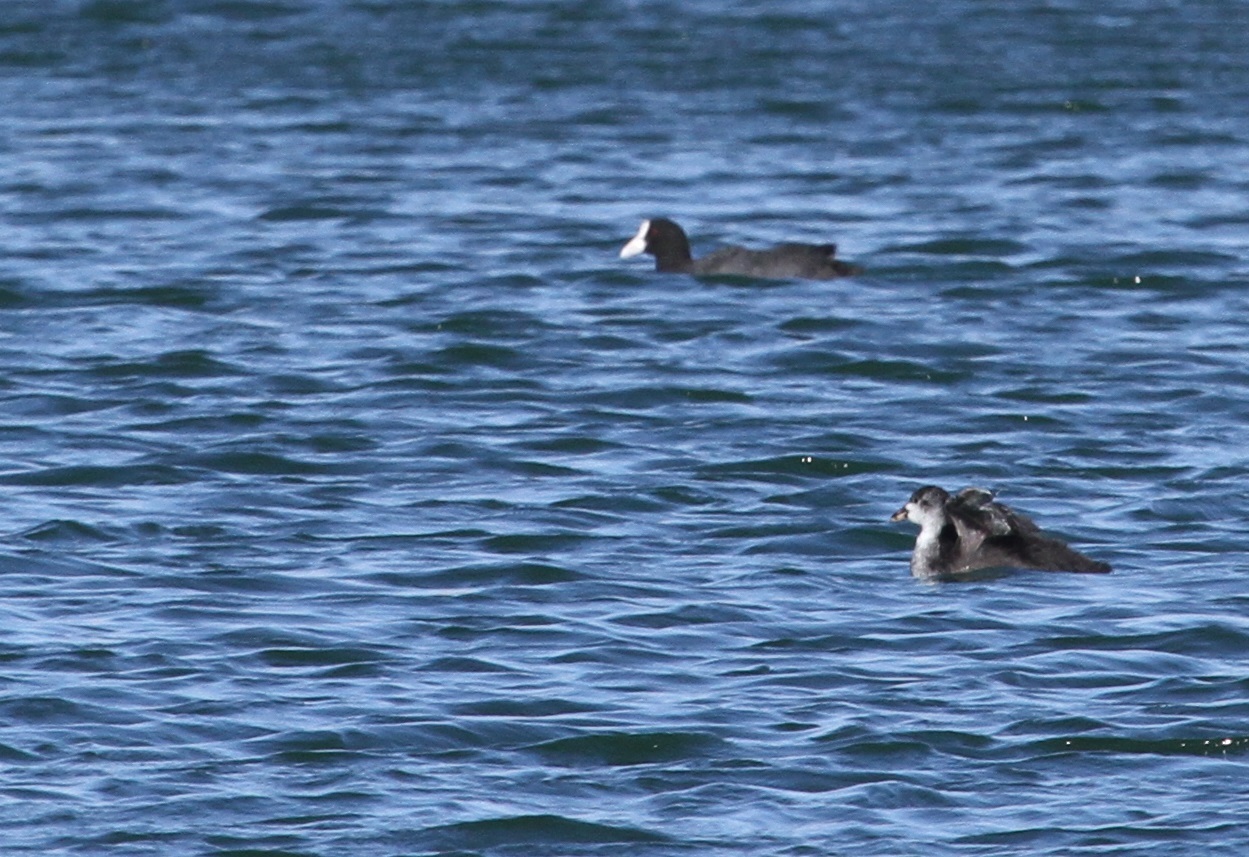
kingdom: Animalia
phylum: Chordata
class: Aves
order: Gruiformes
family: Rallidae
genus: Fulica
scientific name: Fulica atra
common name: Eurasian coot
